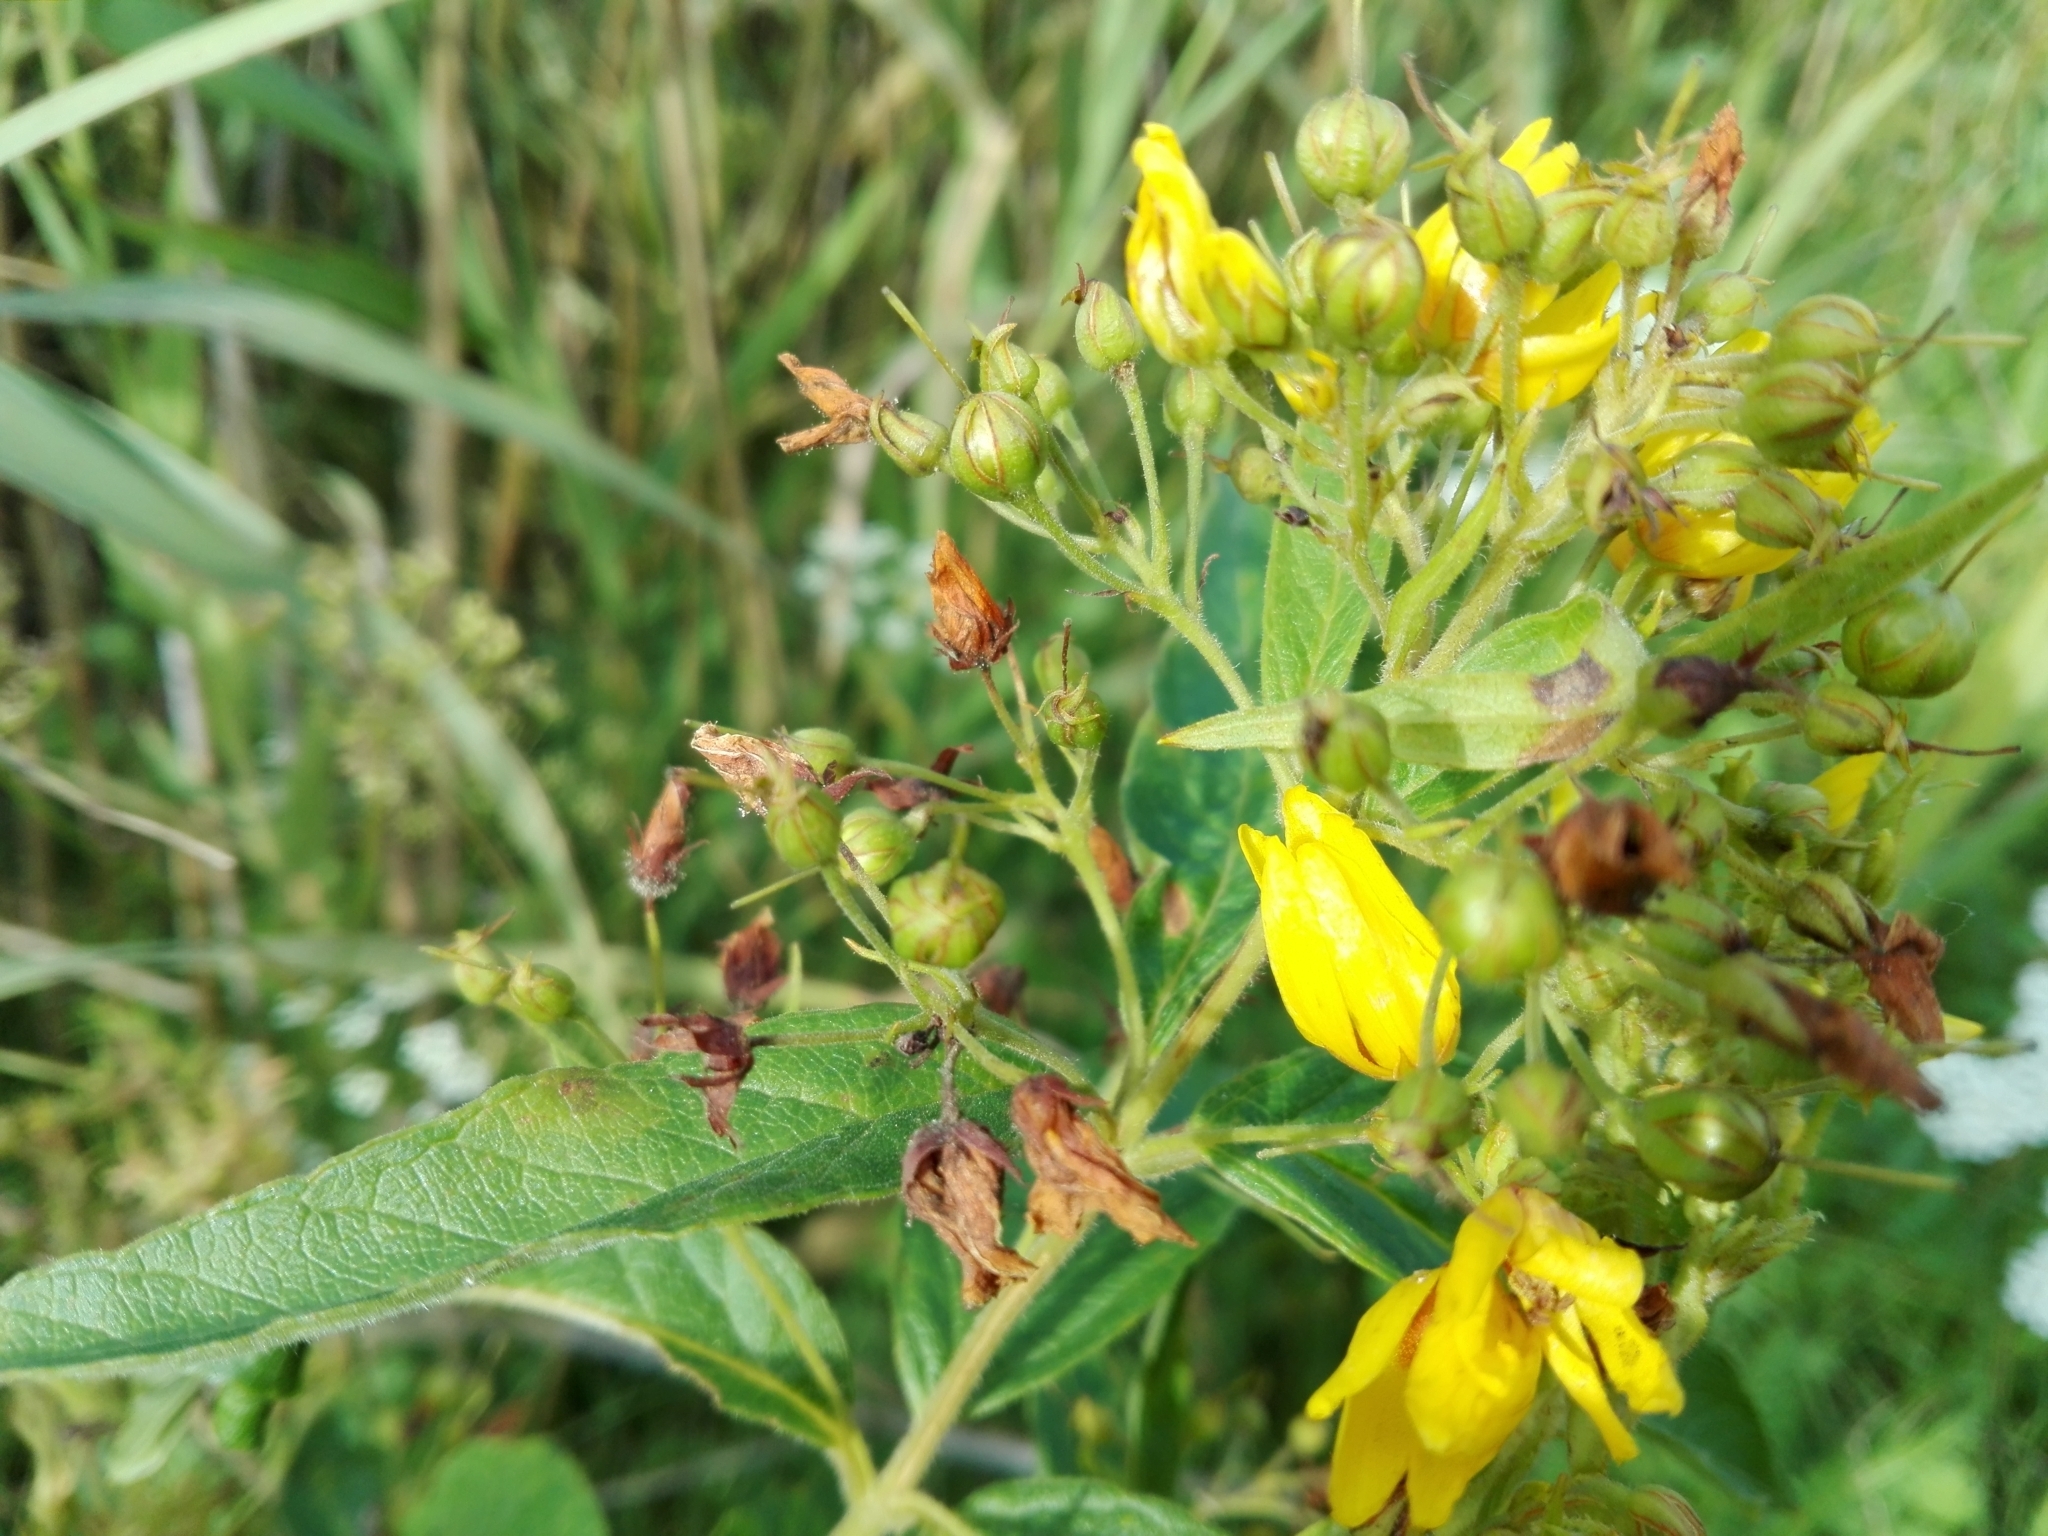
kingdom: Plantae
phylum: Tracheophyta
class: Magnoliopsida
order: Ericales
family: Primulaceae
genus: Lysimachia
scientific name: Lysimachia vulgaris
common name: Yellow loosestrife
